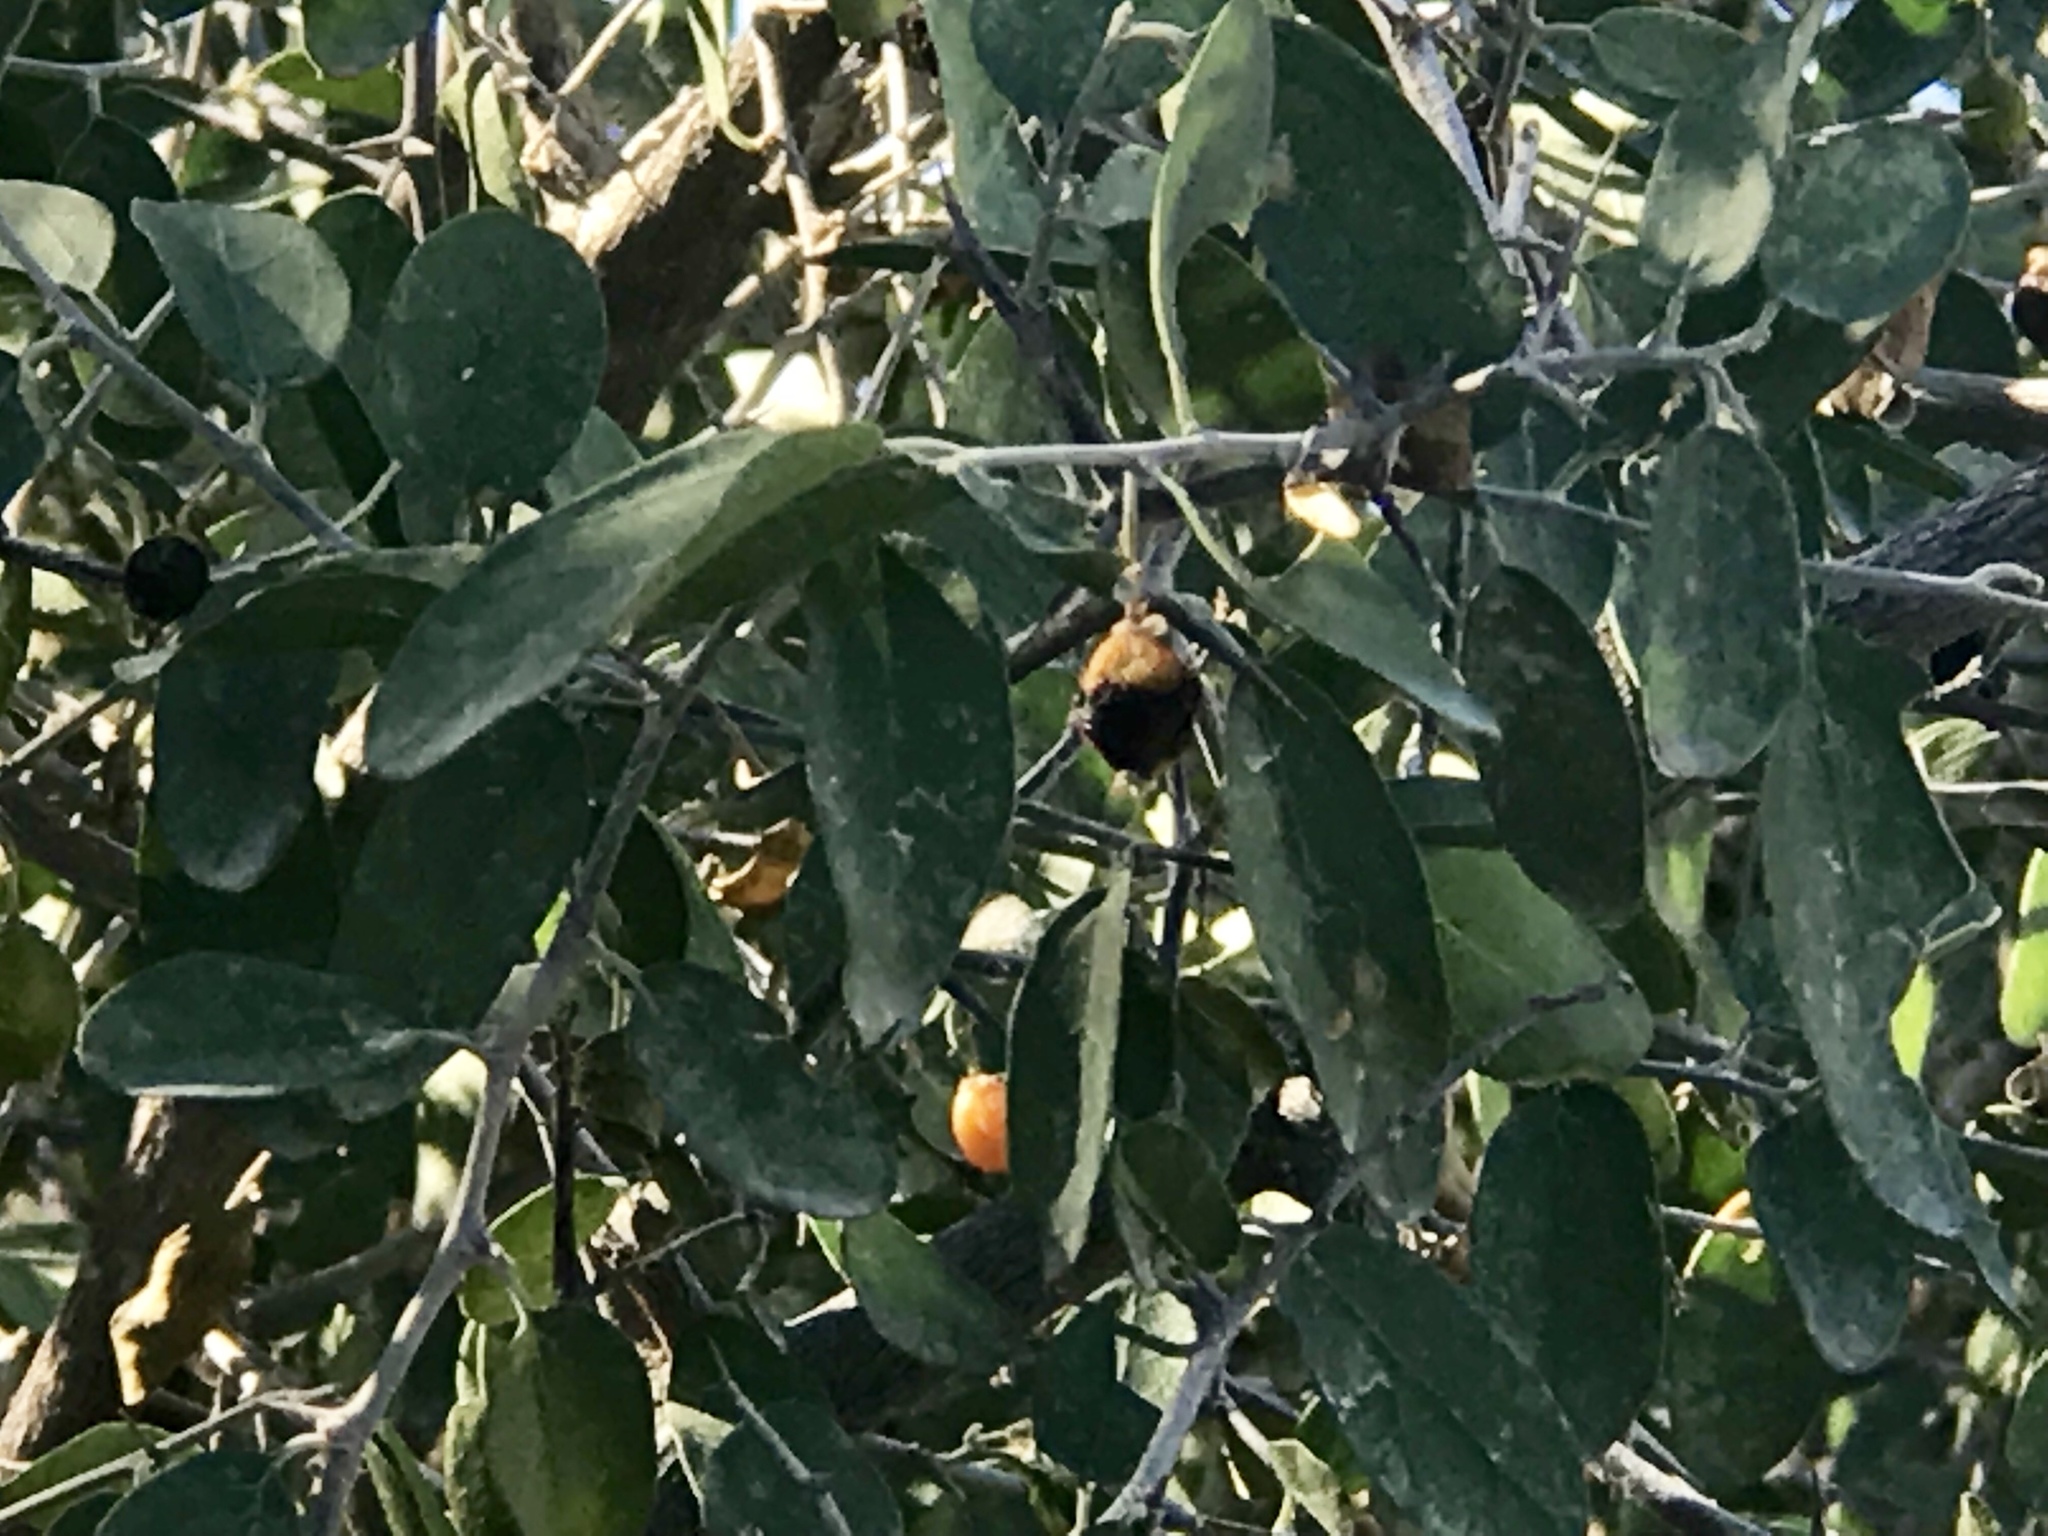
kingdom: Plantae
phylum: Tracheophyta
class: Magnoliopsida
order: Rosales
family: Cannabaceae
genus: Celtis
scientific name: Celtis pallida
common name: Desert hackberry
